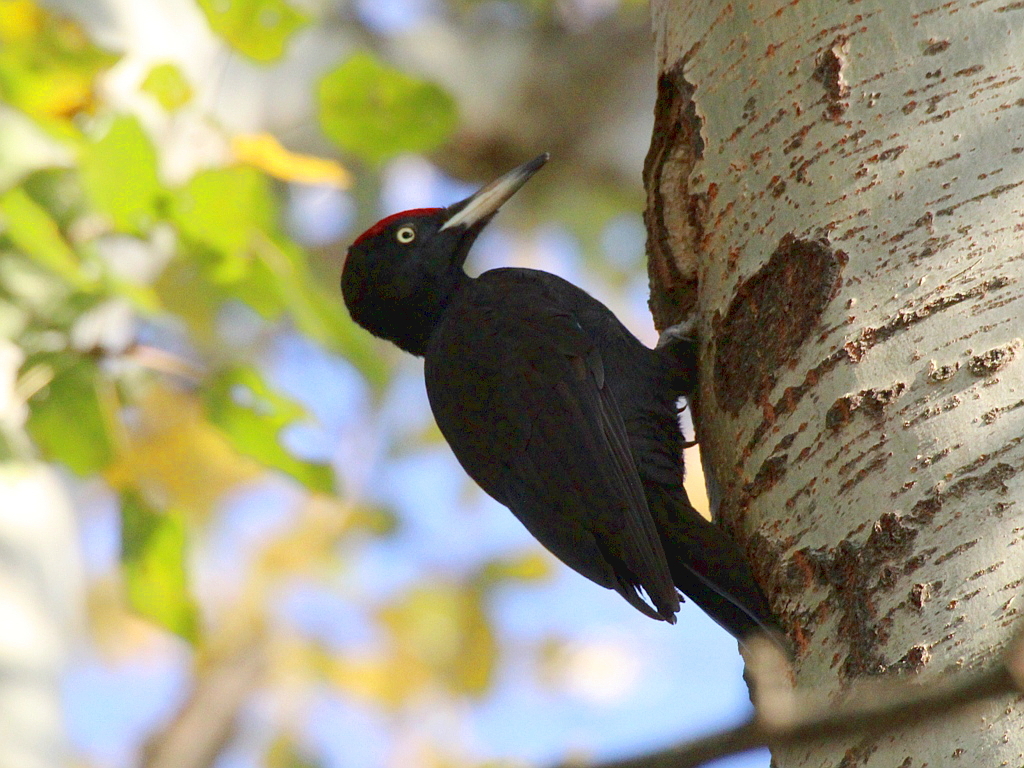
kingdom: Animalia
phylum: Chordata
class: Aves
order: Piciformes
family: Picidae
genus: Dryocopus
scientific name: Dryocopus martius
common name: Black woodpecker
